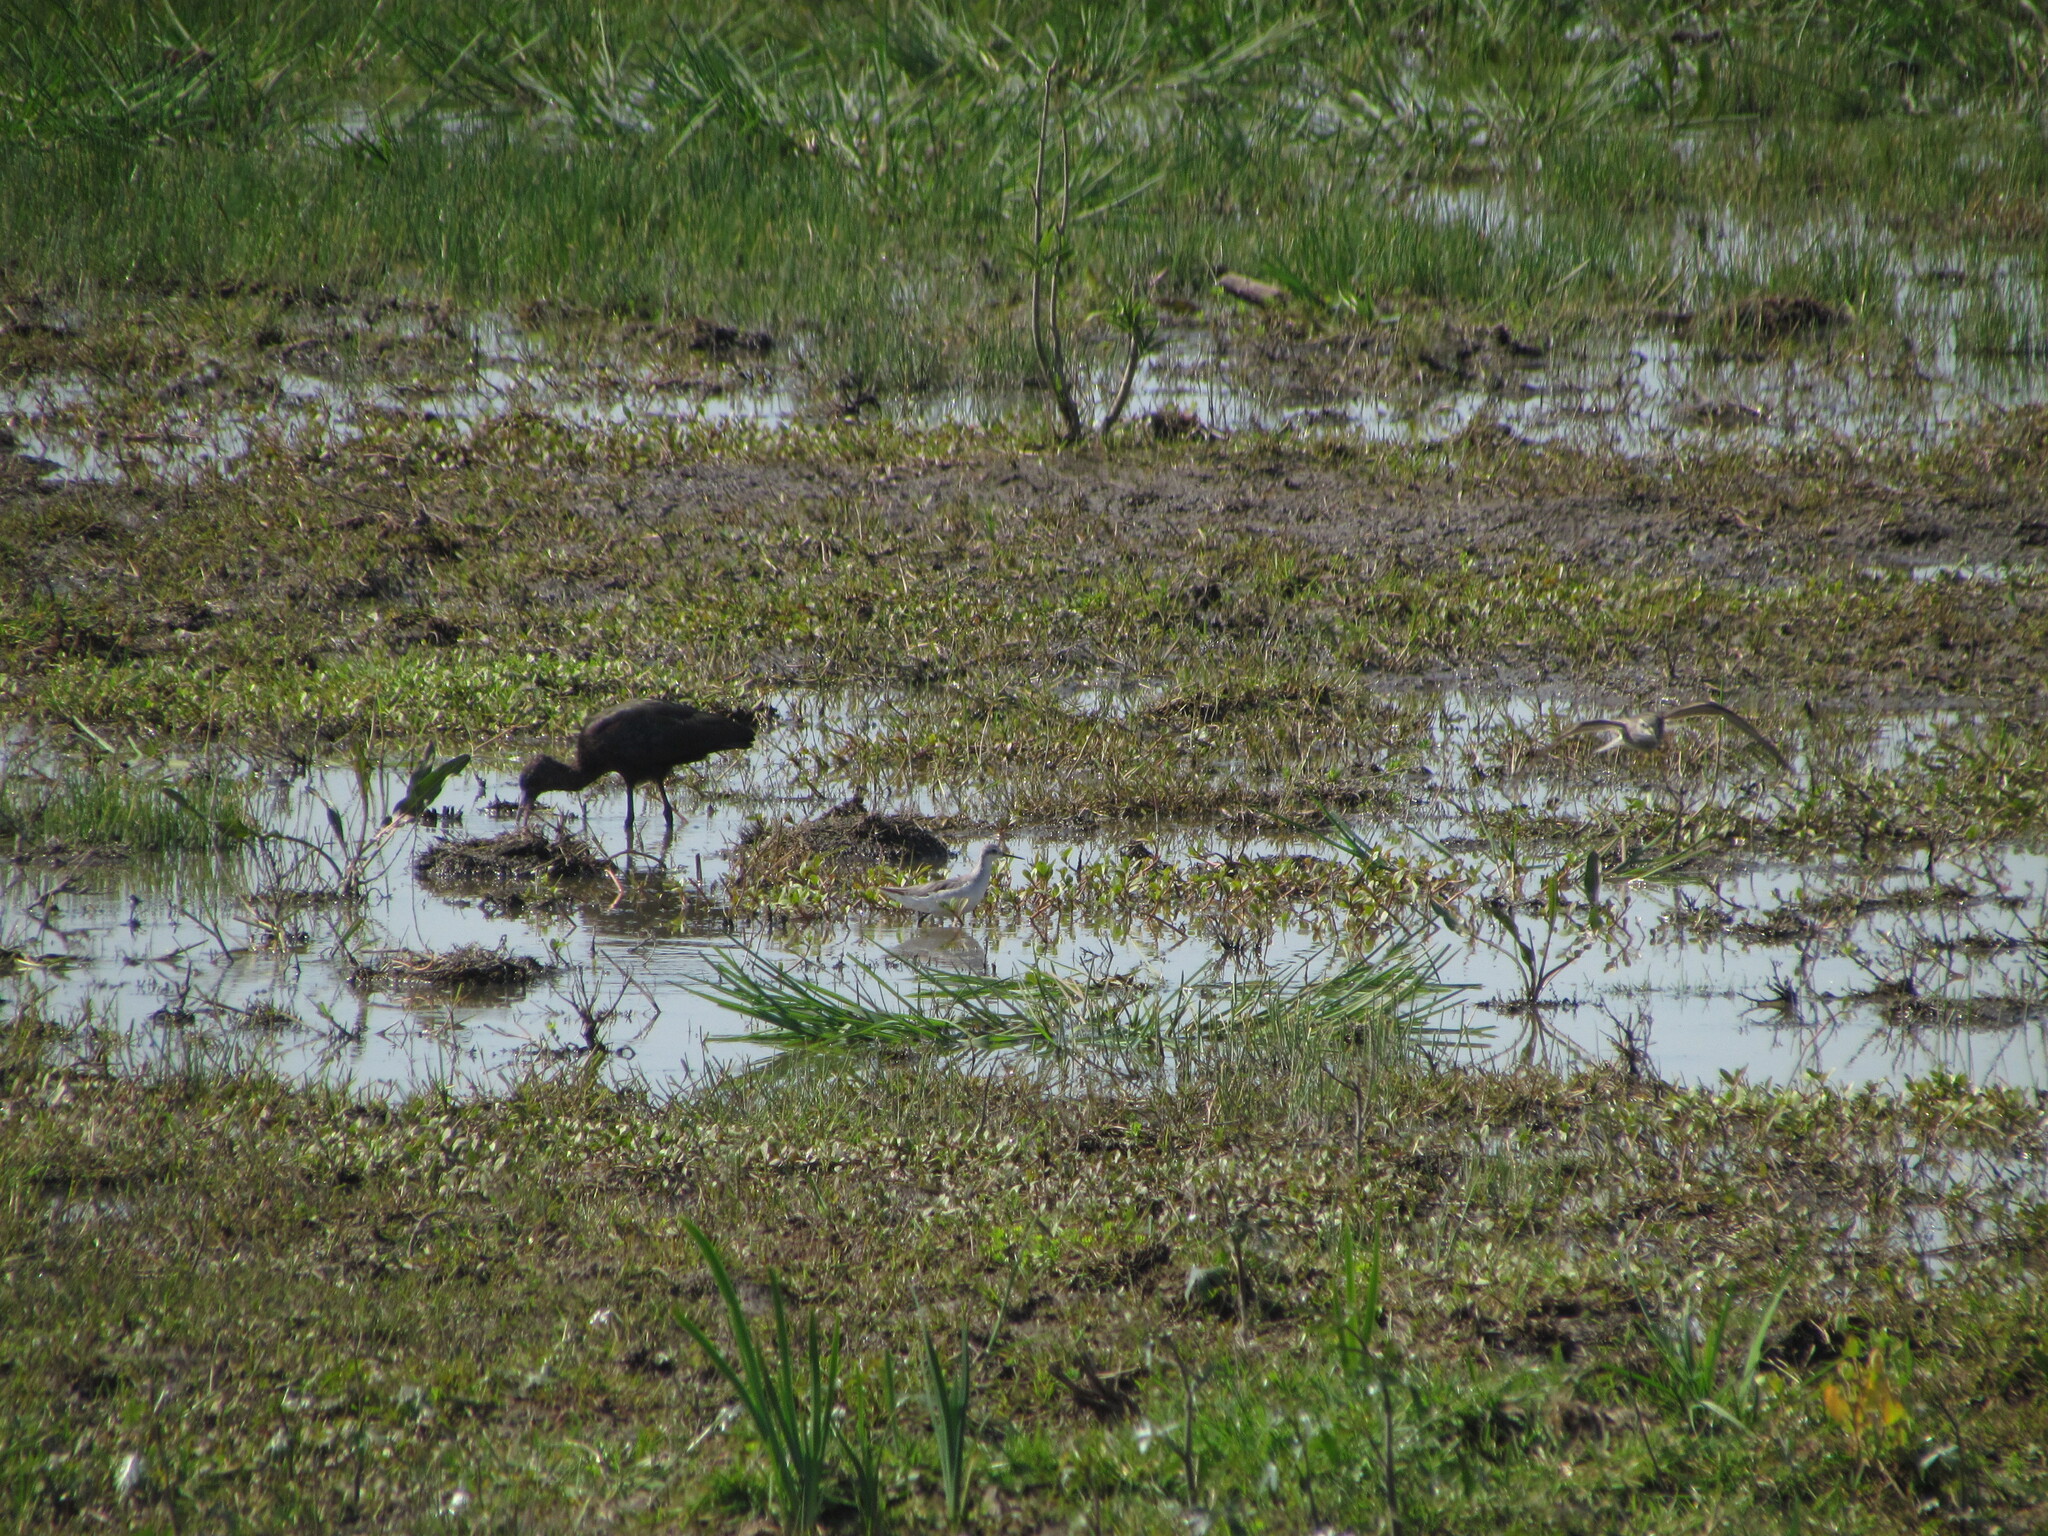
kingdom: Animalia
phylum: Chordata
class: Aves
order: Pelecaniformes
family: Threskiornithidae
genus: Plegadis
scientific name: Plegadis chihi
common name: White-faced ibis
